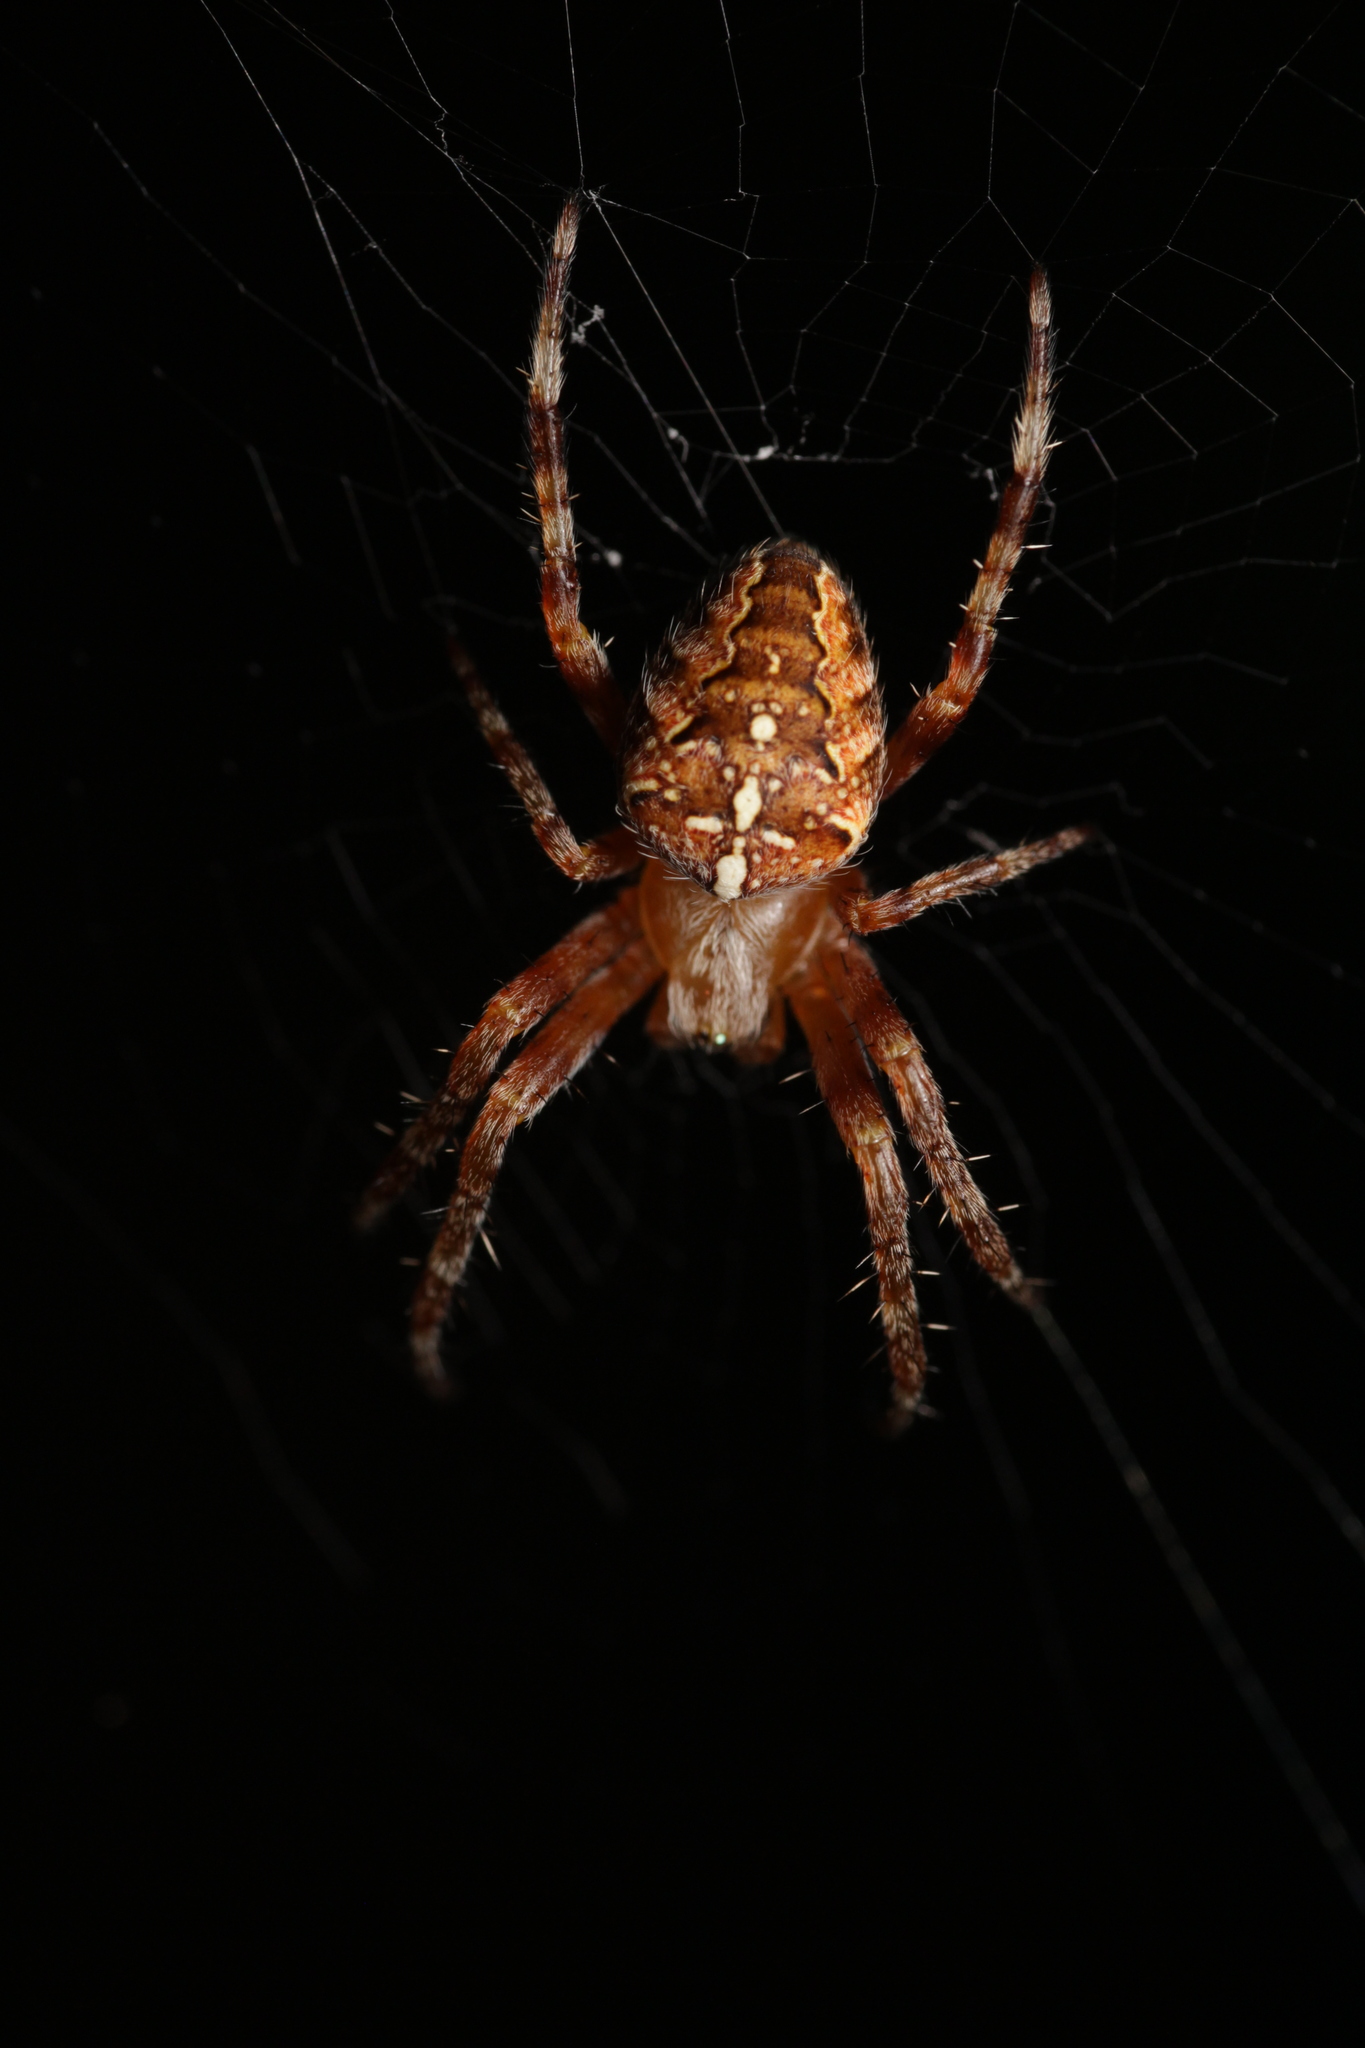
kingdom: Animalia
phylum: Arthropoda
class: Arachnida
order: Araneae
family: Araneidae
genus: Araneus
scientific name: Araneus diadematus
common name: Cross orbweaver
